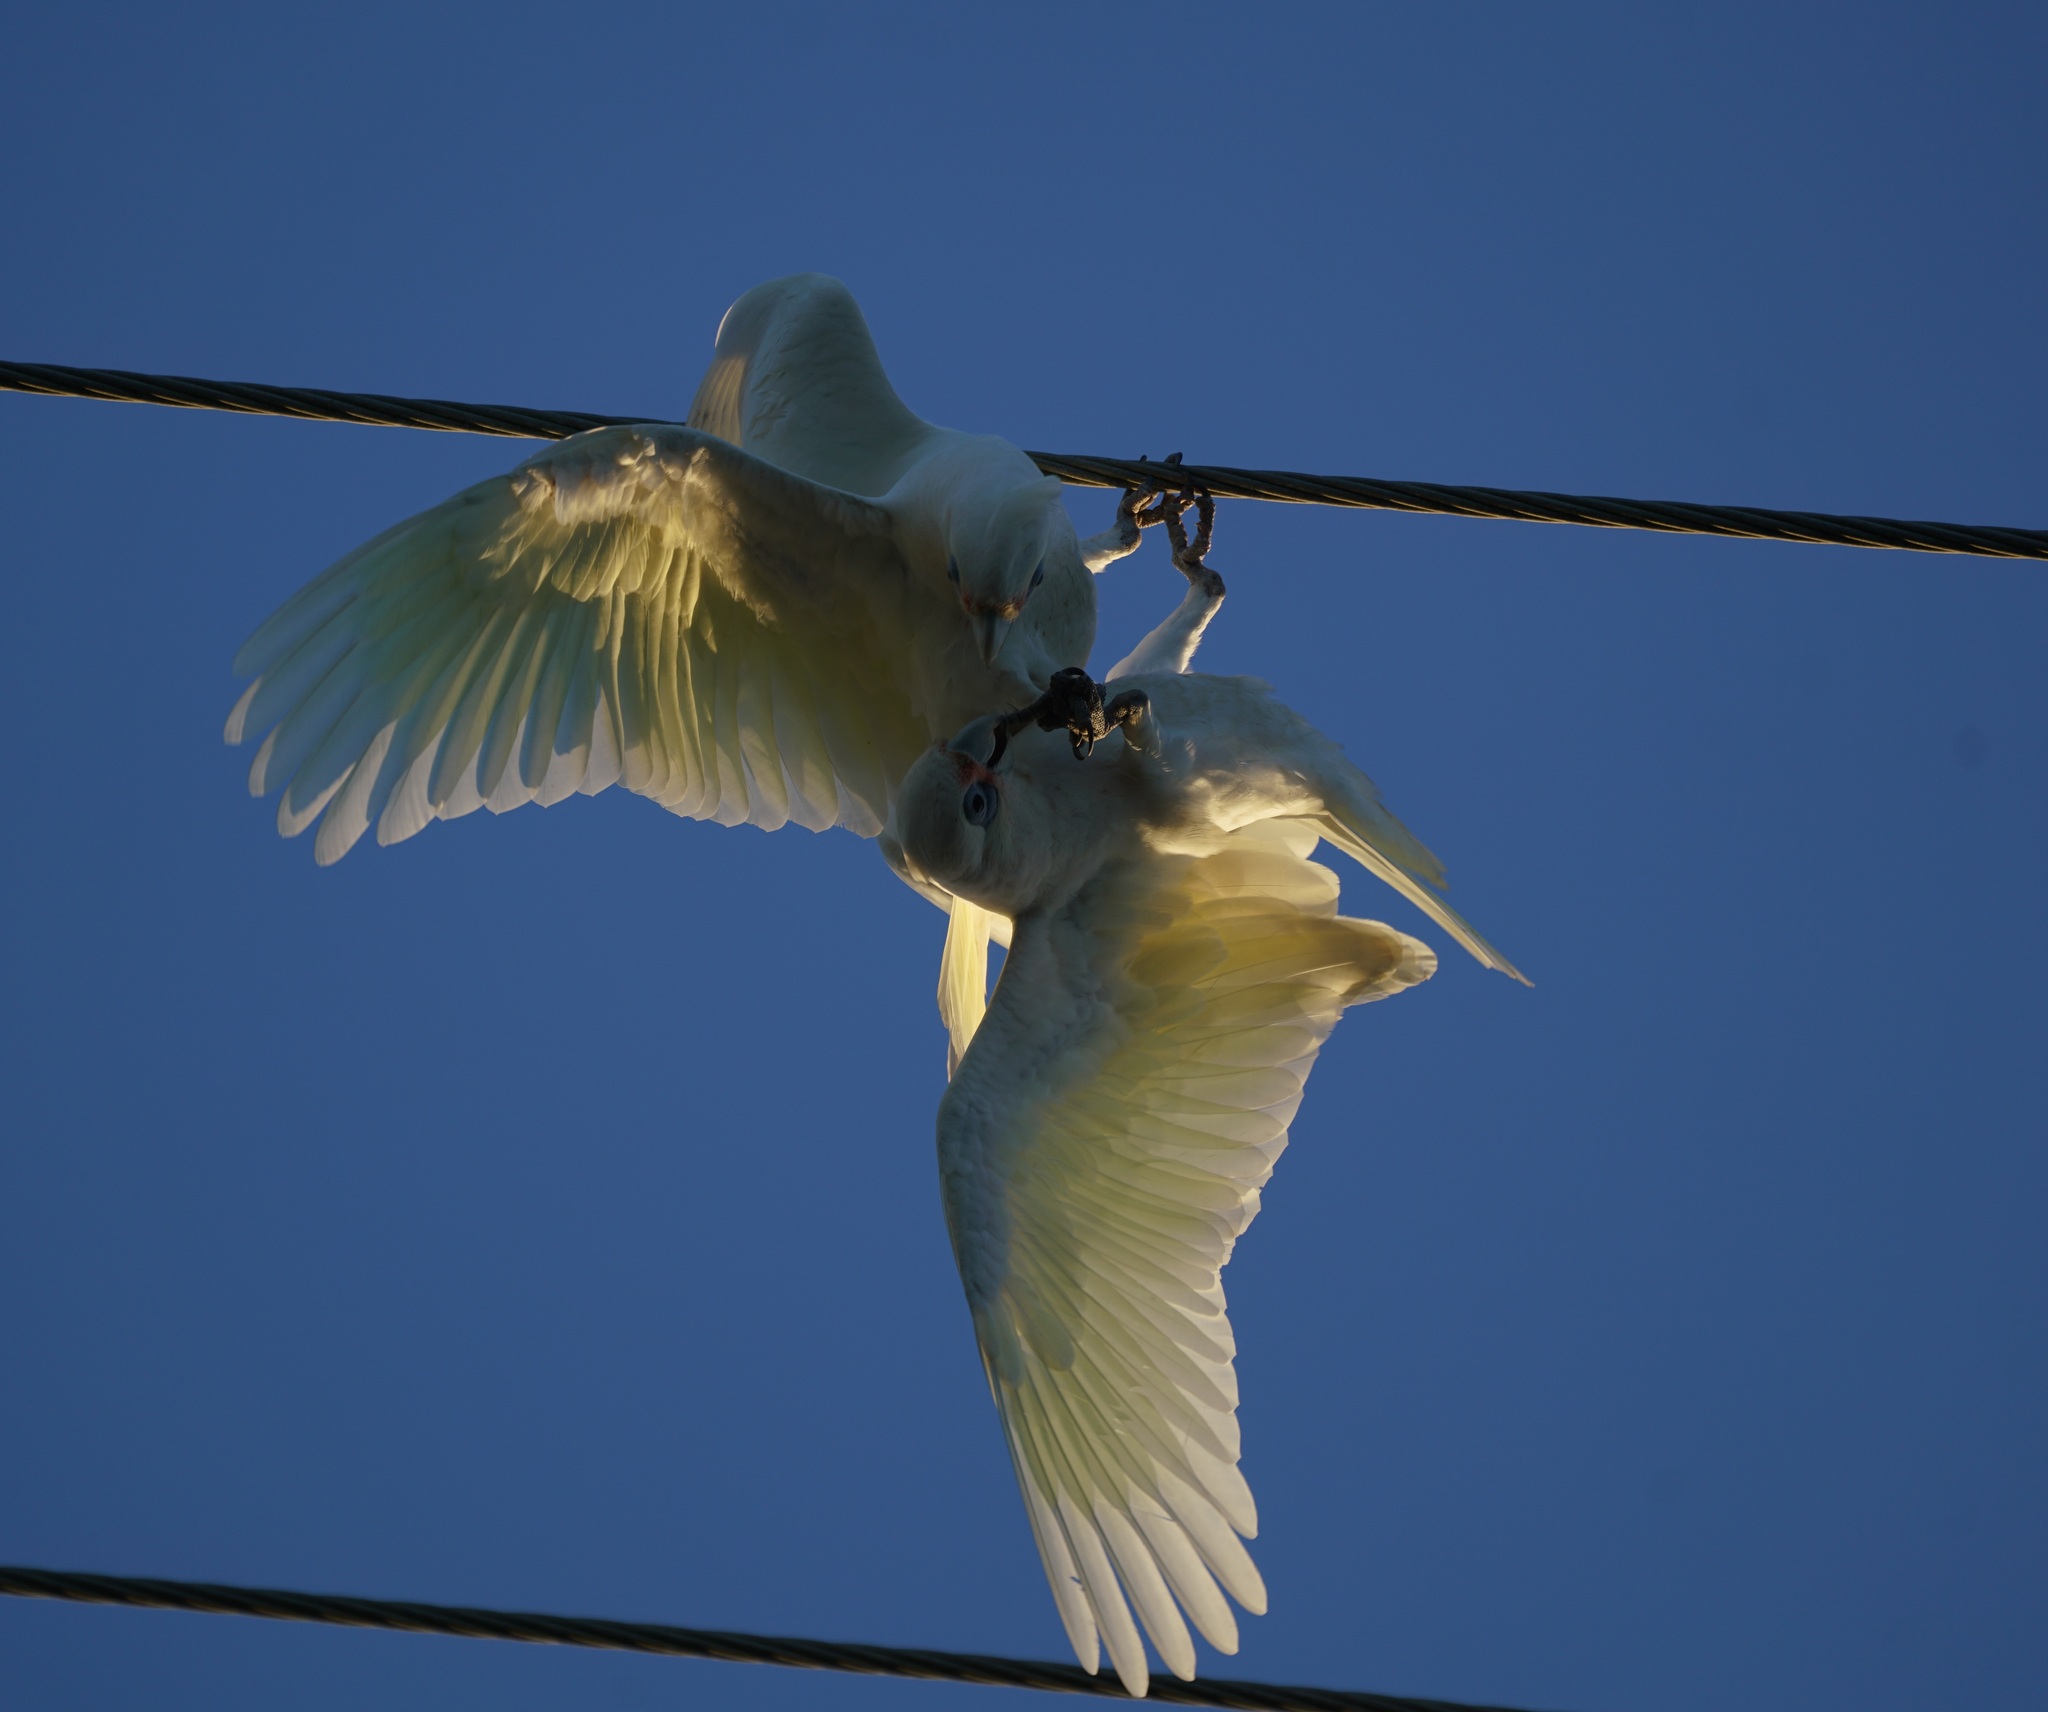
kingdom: Animalia
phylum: Chordata
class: Aves
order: Psittaciformes
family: Psittacidae
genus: Cacatua
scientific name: Cacatua sanguinea
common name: Little corella
